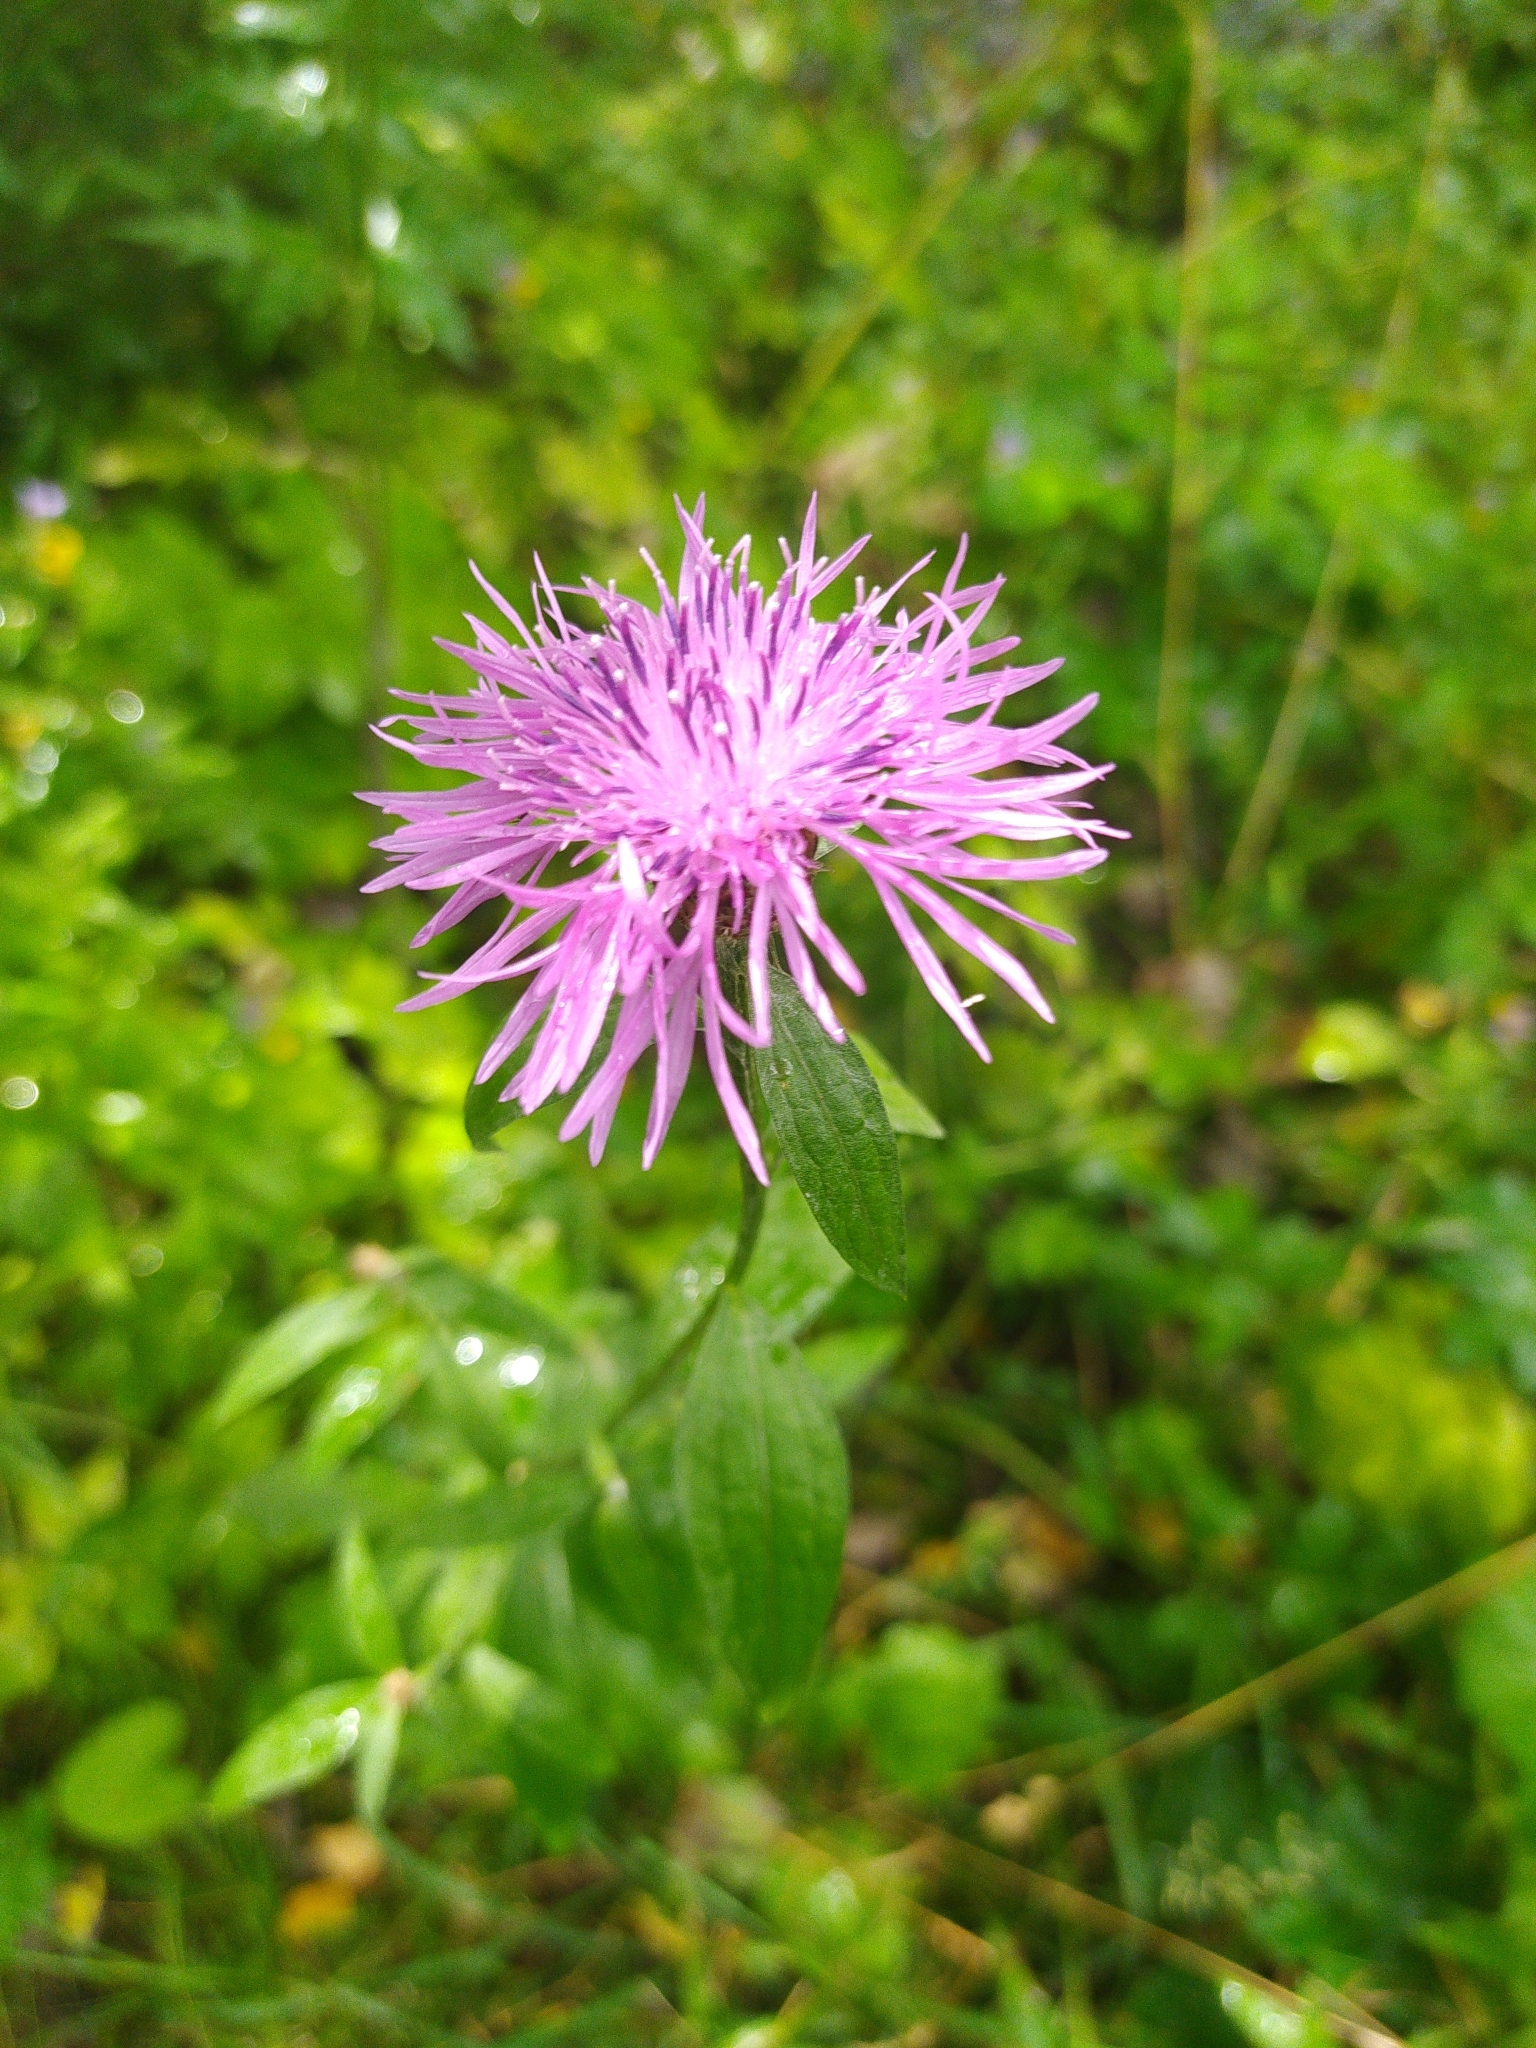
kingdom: Plantae
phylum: Tracheophyta
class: Magnoliopsida
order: Asterales
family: Asteraceae
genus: Centaurea
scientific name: Centaurea jacea
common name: Brown knapweed
